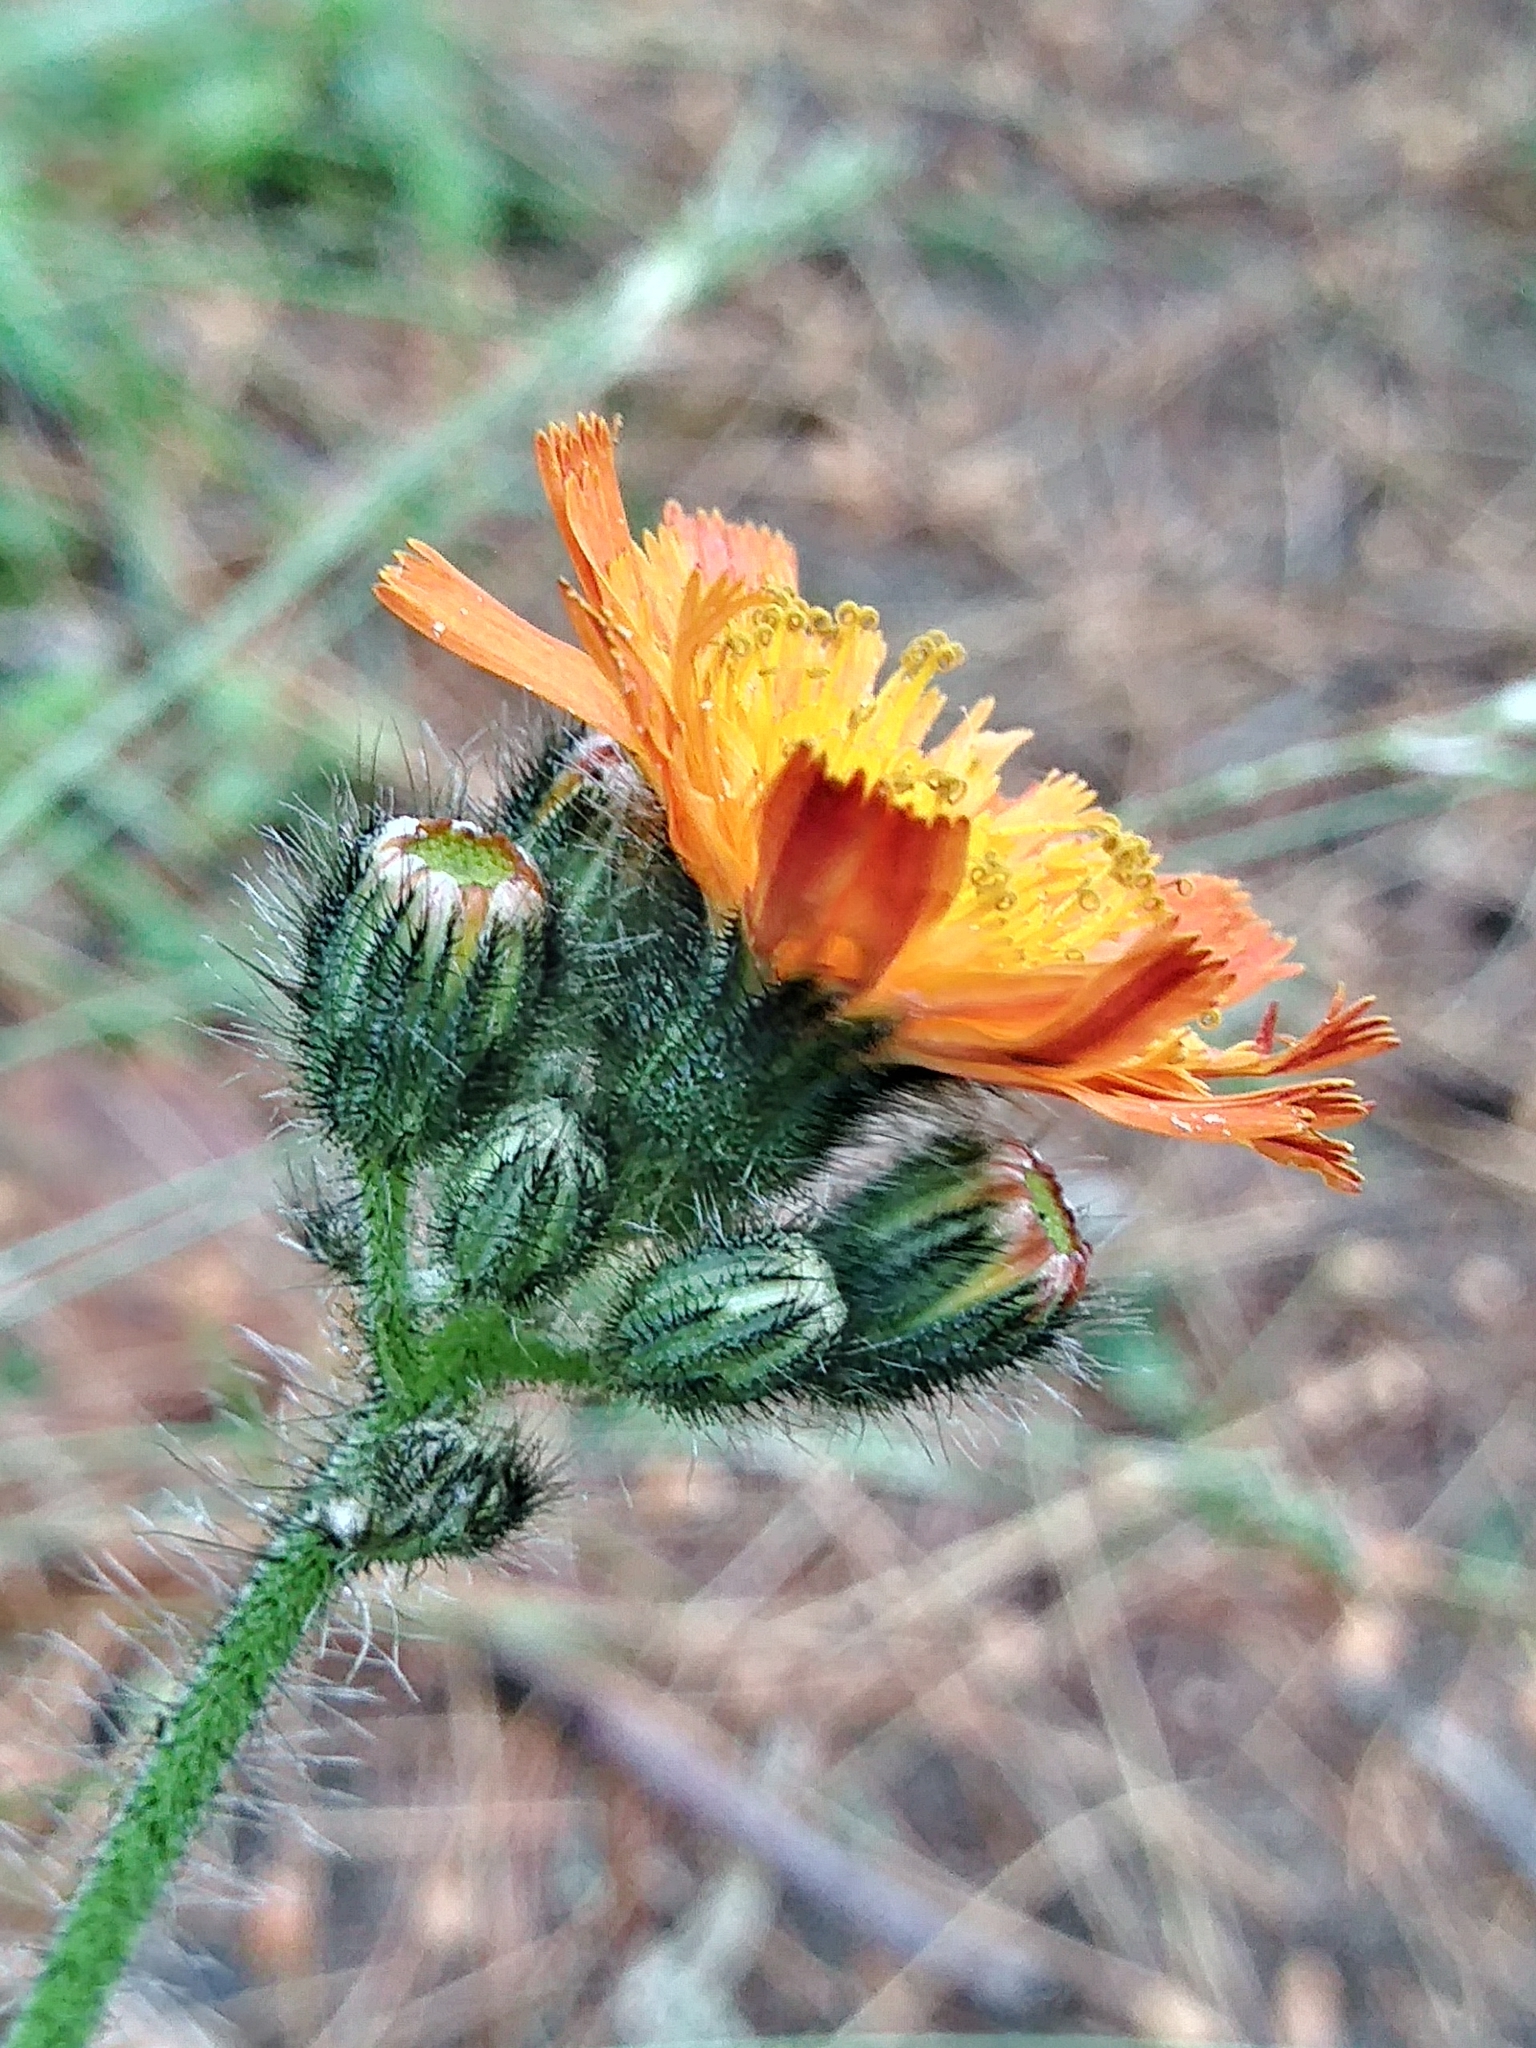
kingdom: Plantae
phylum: Tracheophyta
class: Magnoliopsida
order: Asterales
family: Asteraceae
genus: Pilosella
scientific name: Pilosella aurantiaca
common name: Fox-and-cubs
